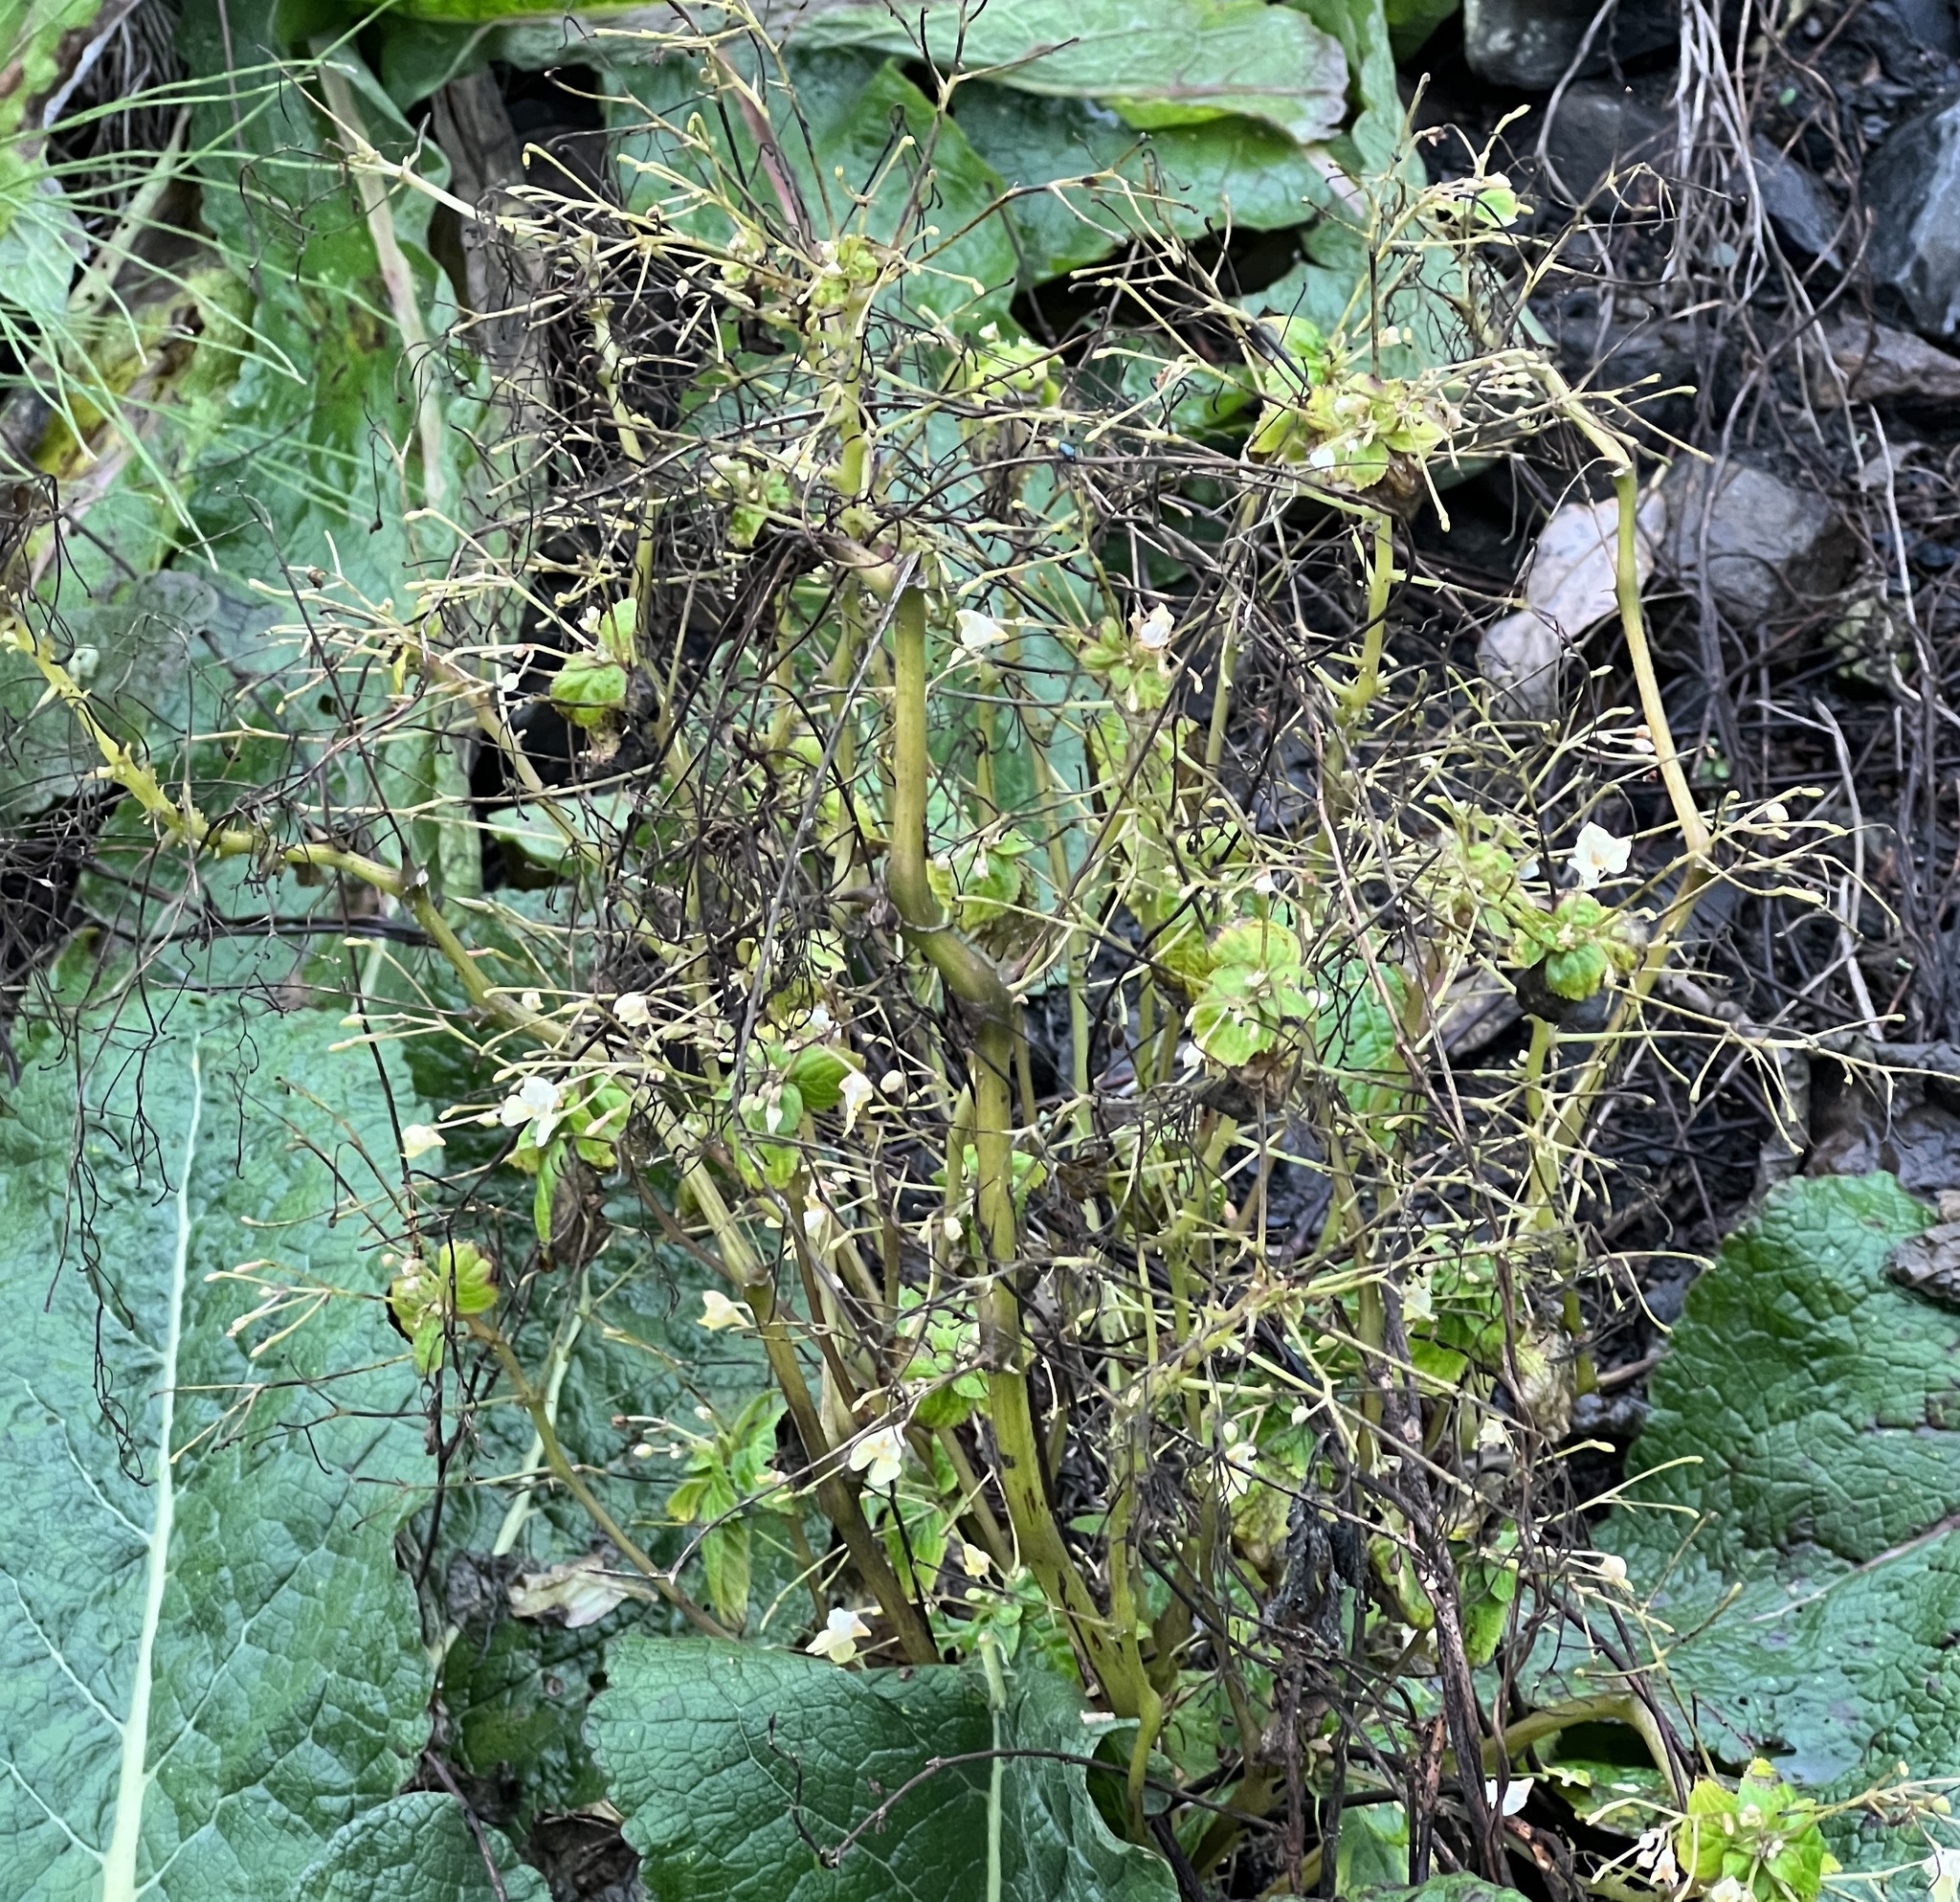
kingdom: Plantae
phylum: Tracheophyta
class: Magnoliopsida
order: Ericales
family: Balsaminaceae
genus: Impatiens
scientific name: Impatiens parviflora
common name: Small balsam
